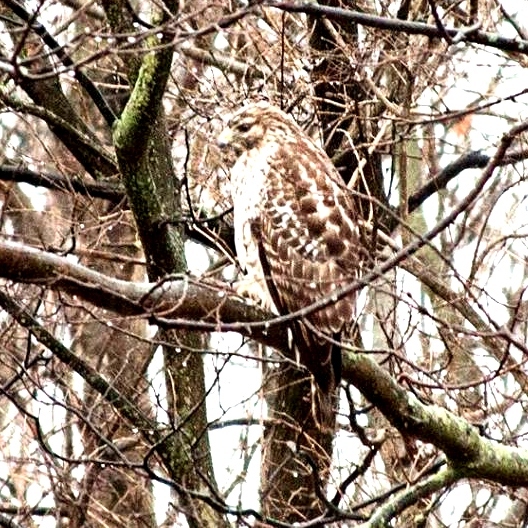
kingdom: Animalia
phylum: Chordata
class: Aves
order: Accipitriformes
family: Accipitridae
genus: Buteo
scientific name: Buteo jamaicensis
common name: Red-tailed hawk
